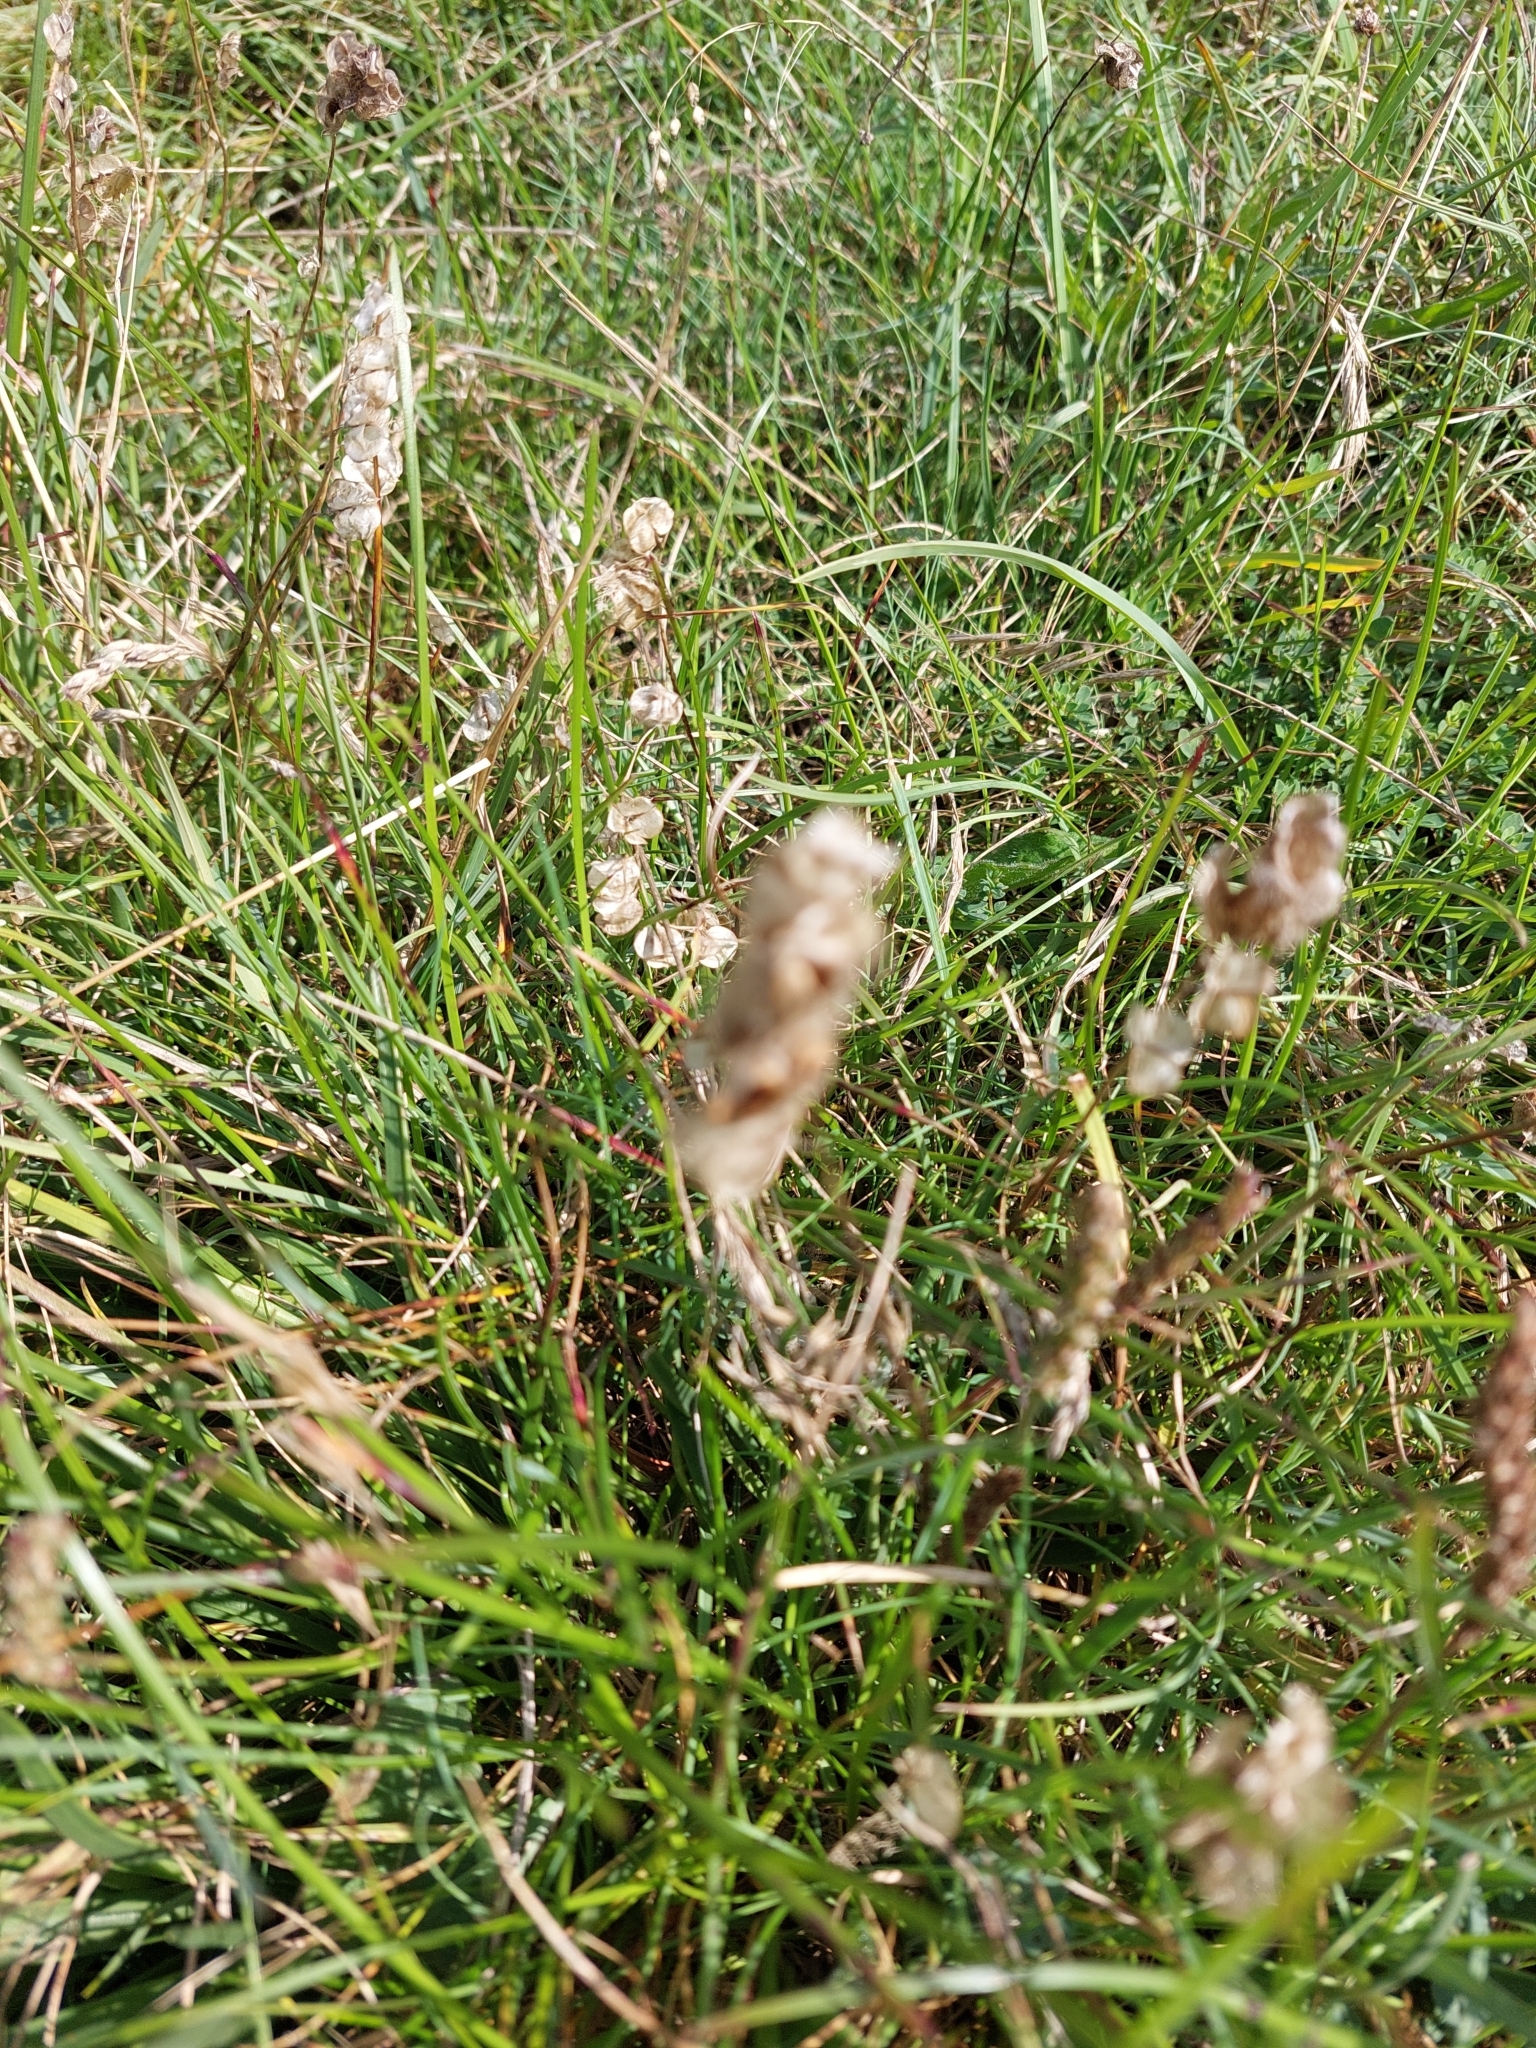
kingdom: Plantae
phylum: Tracheophyta
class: Magnoliopsida
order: Lamiales
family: Orobanchaceae
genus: Rhinanthus
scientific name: Rhinanthus minor
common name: Yellow-rattle
